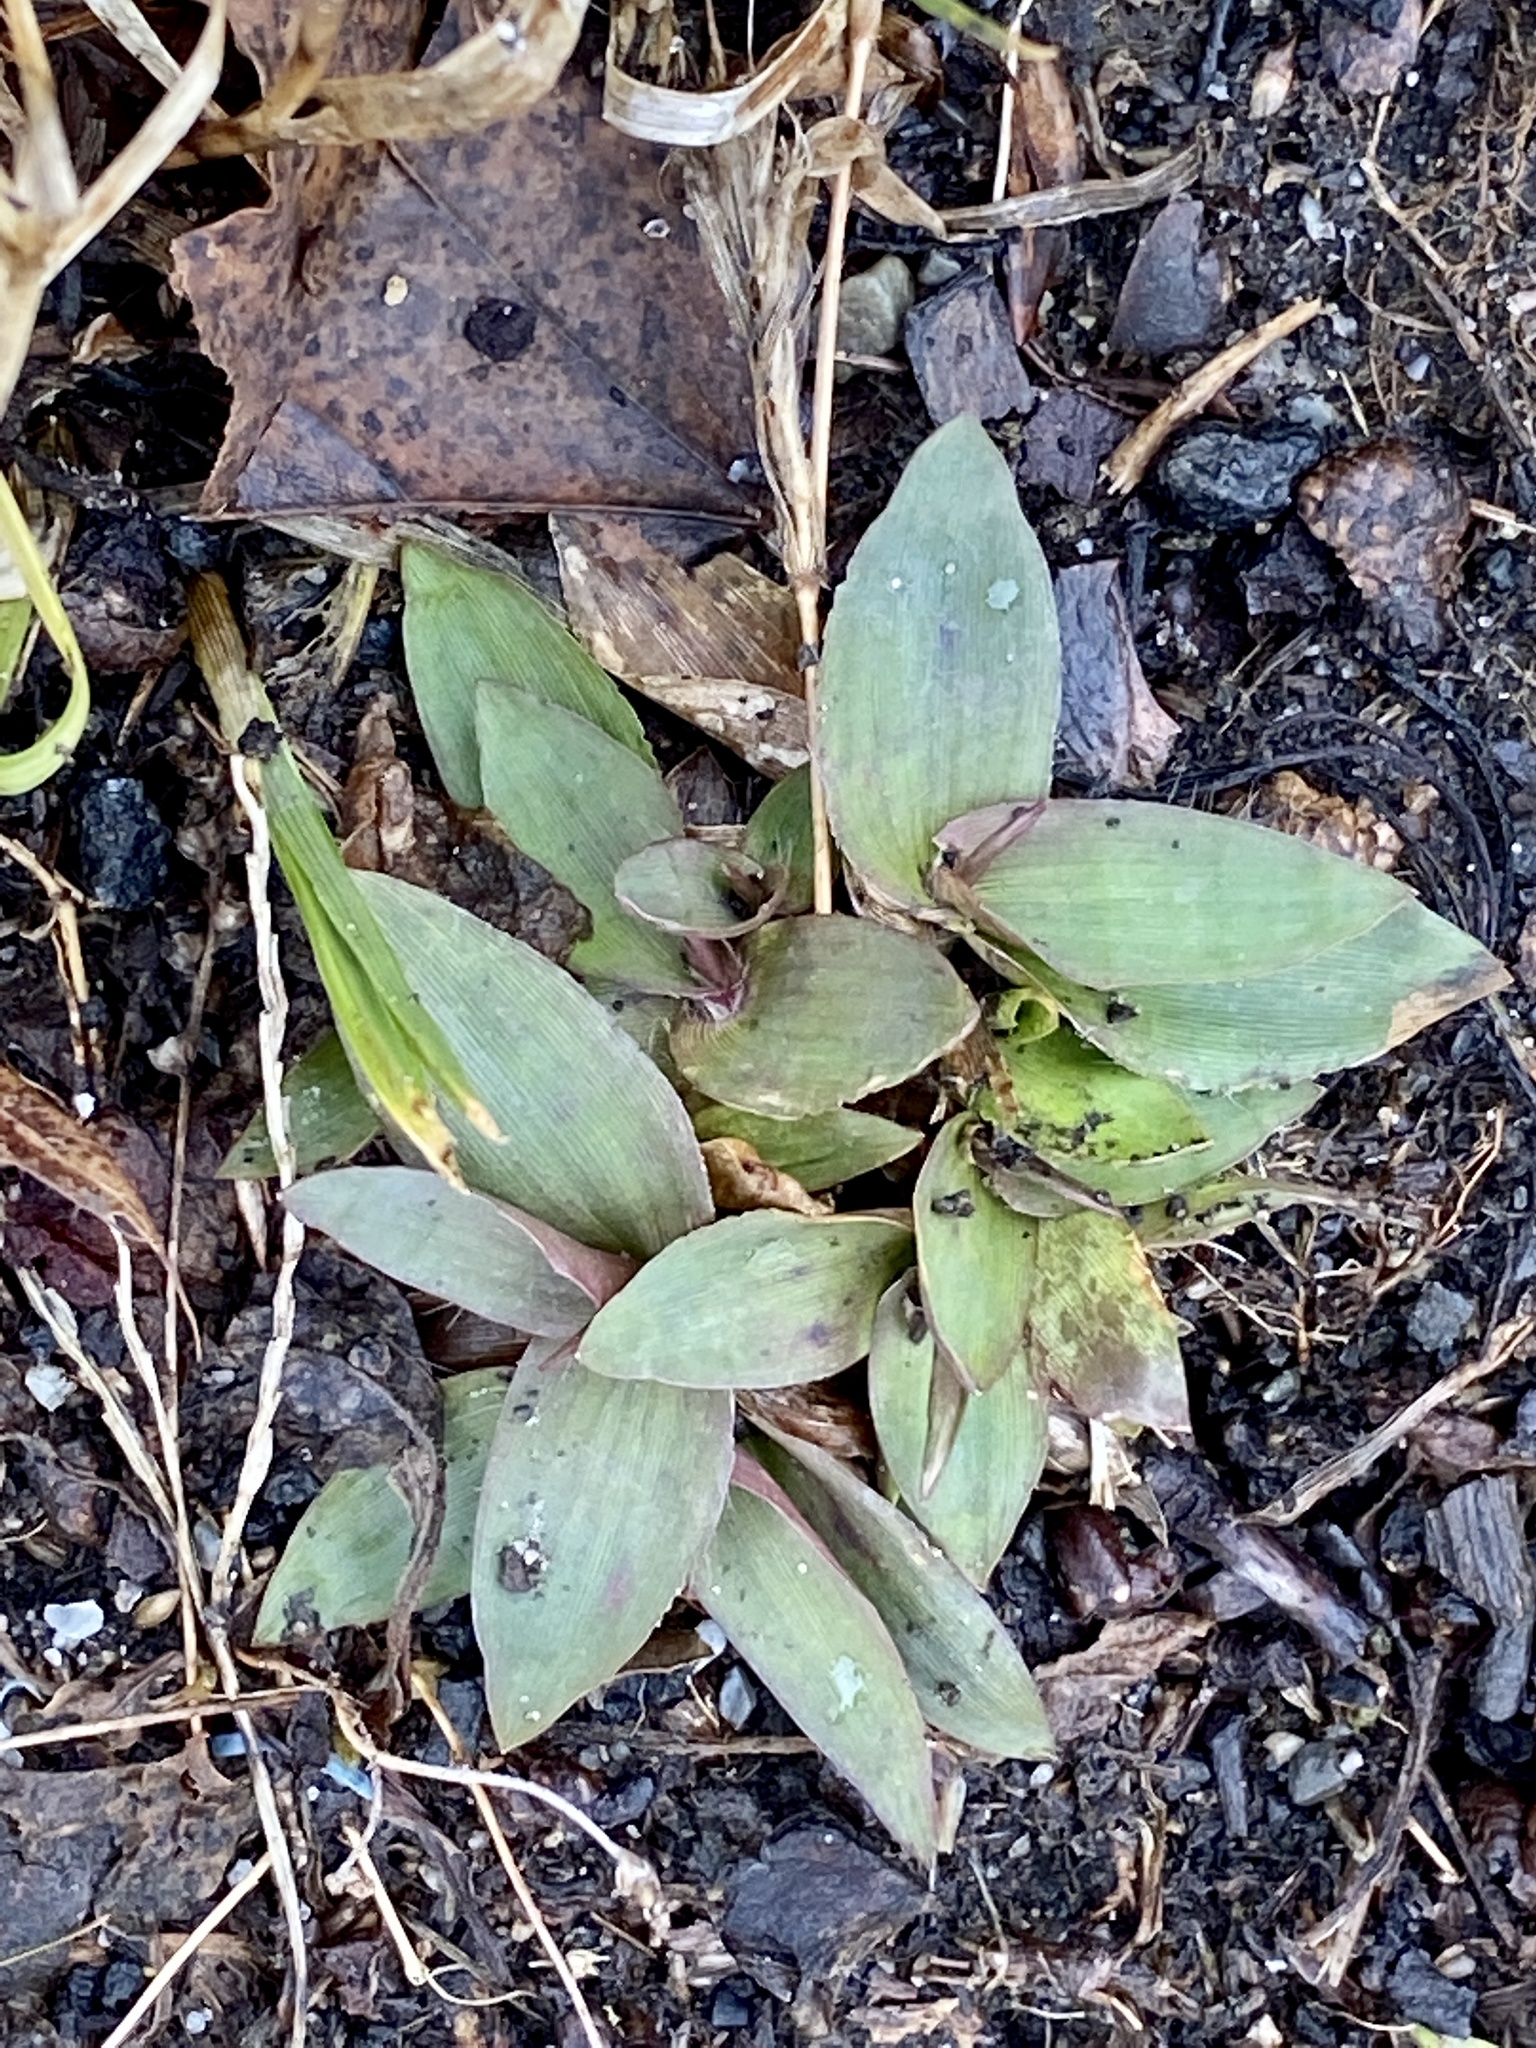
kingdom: Plantae
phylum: Tracheophyta
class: Liliopsida
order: Poales
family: Poaceae
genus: Dichanthelium
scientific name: Dichanthelium clandestinum
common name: Deer-tongue grass
